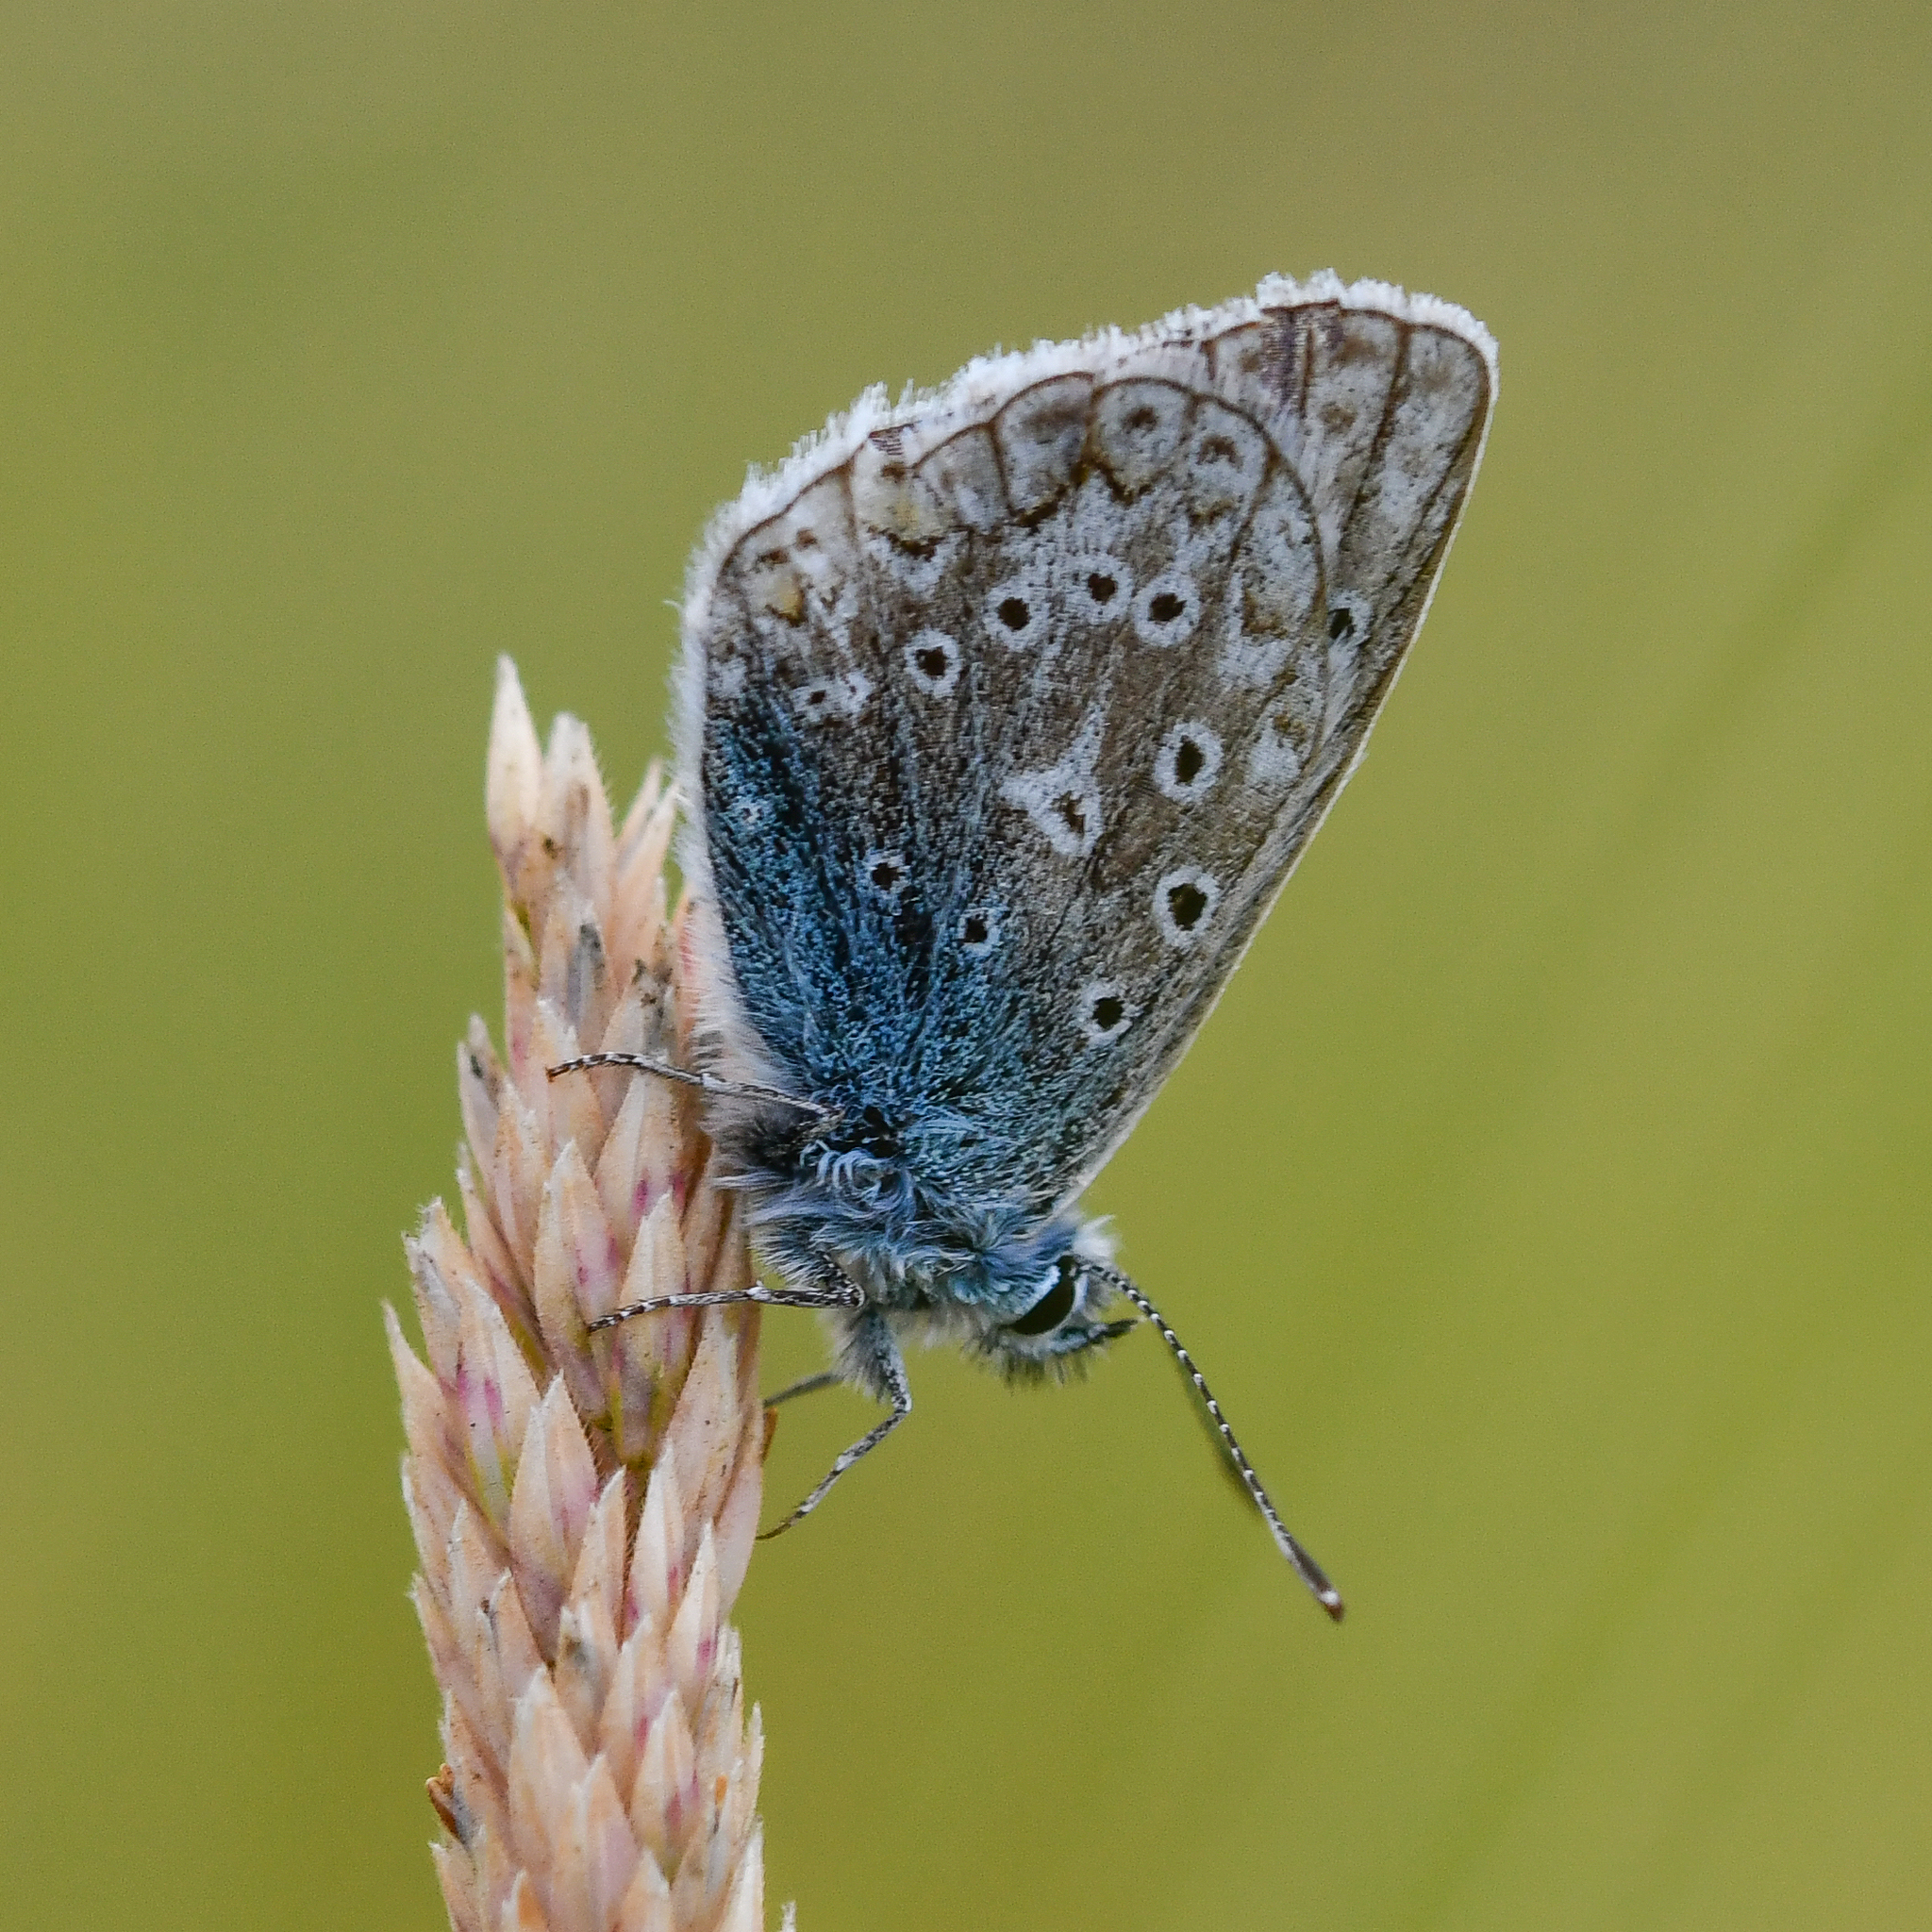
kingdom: Animalia
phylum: Arthropoda
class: Insecta
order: Lepidoptera
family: Lycaenidae
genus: Polyommatus
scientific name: Polyommatus icarus
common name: Common blue
